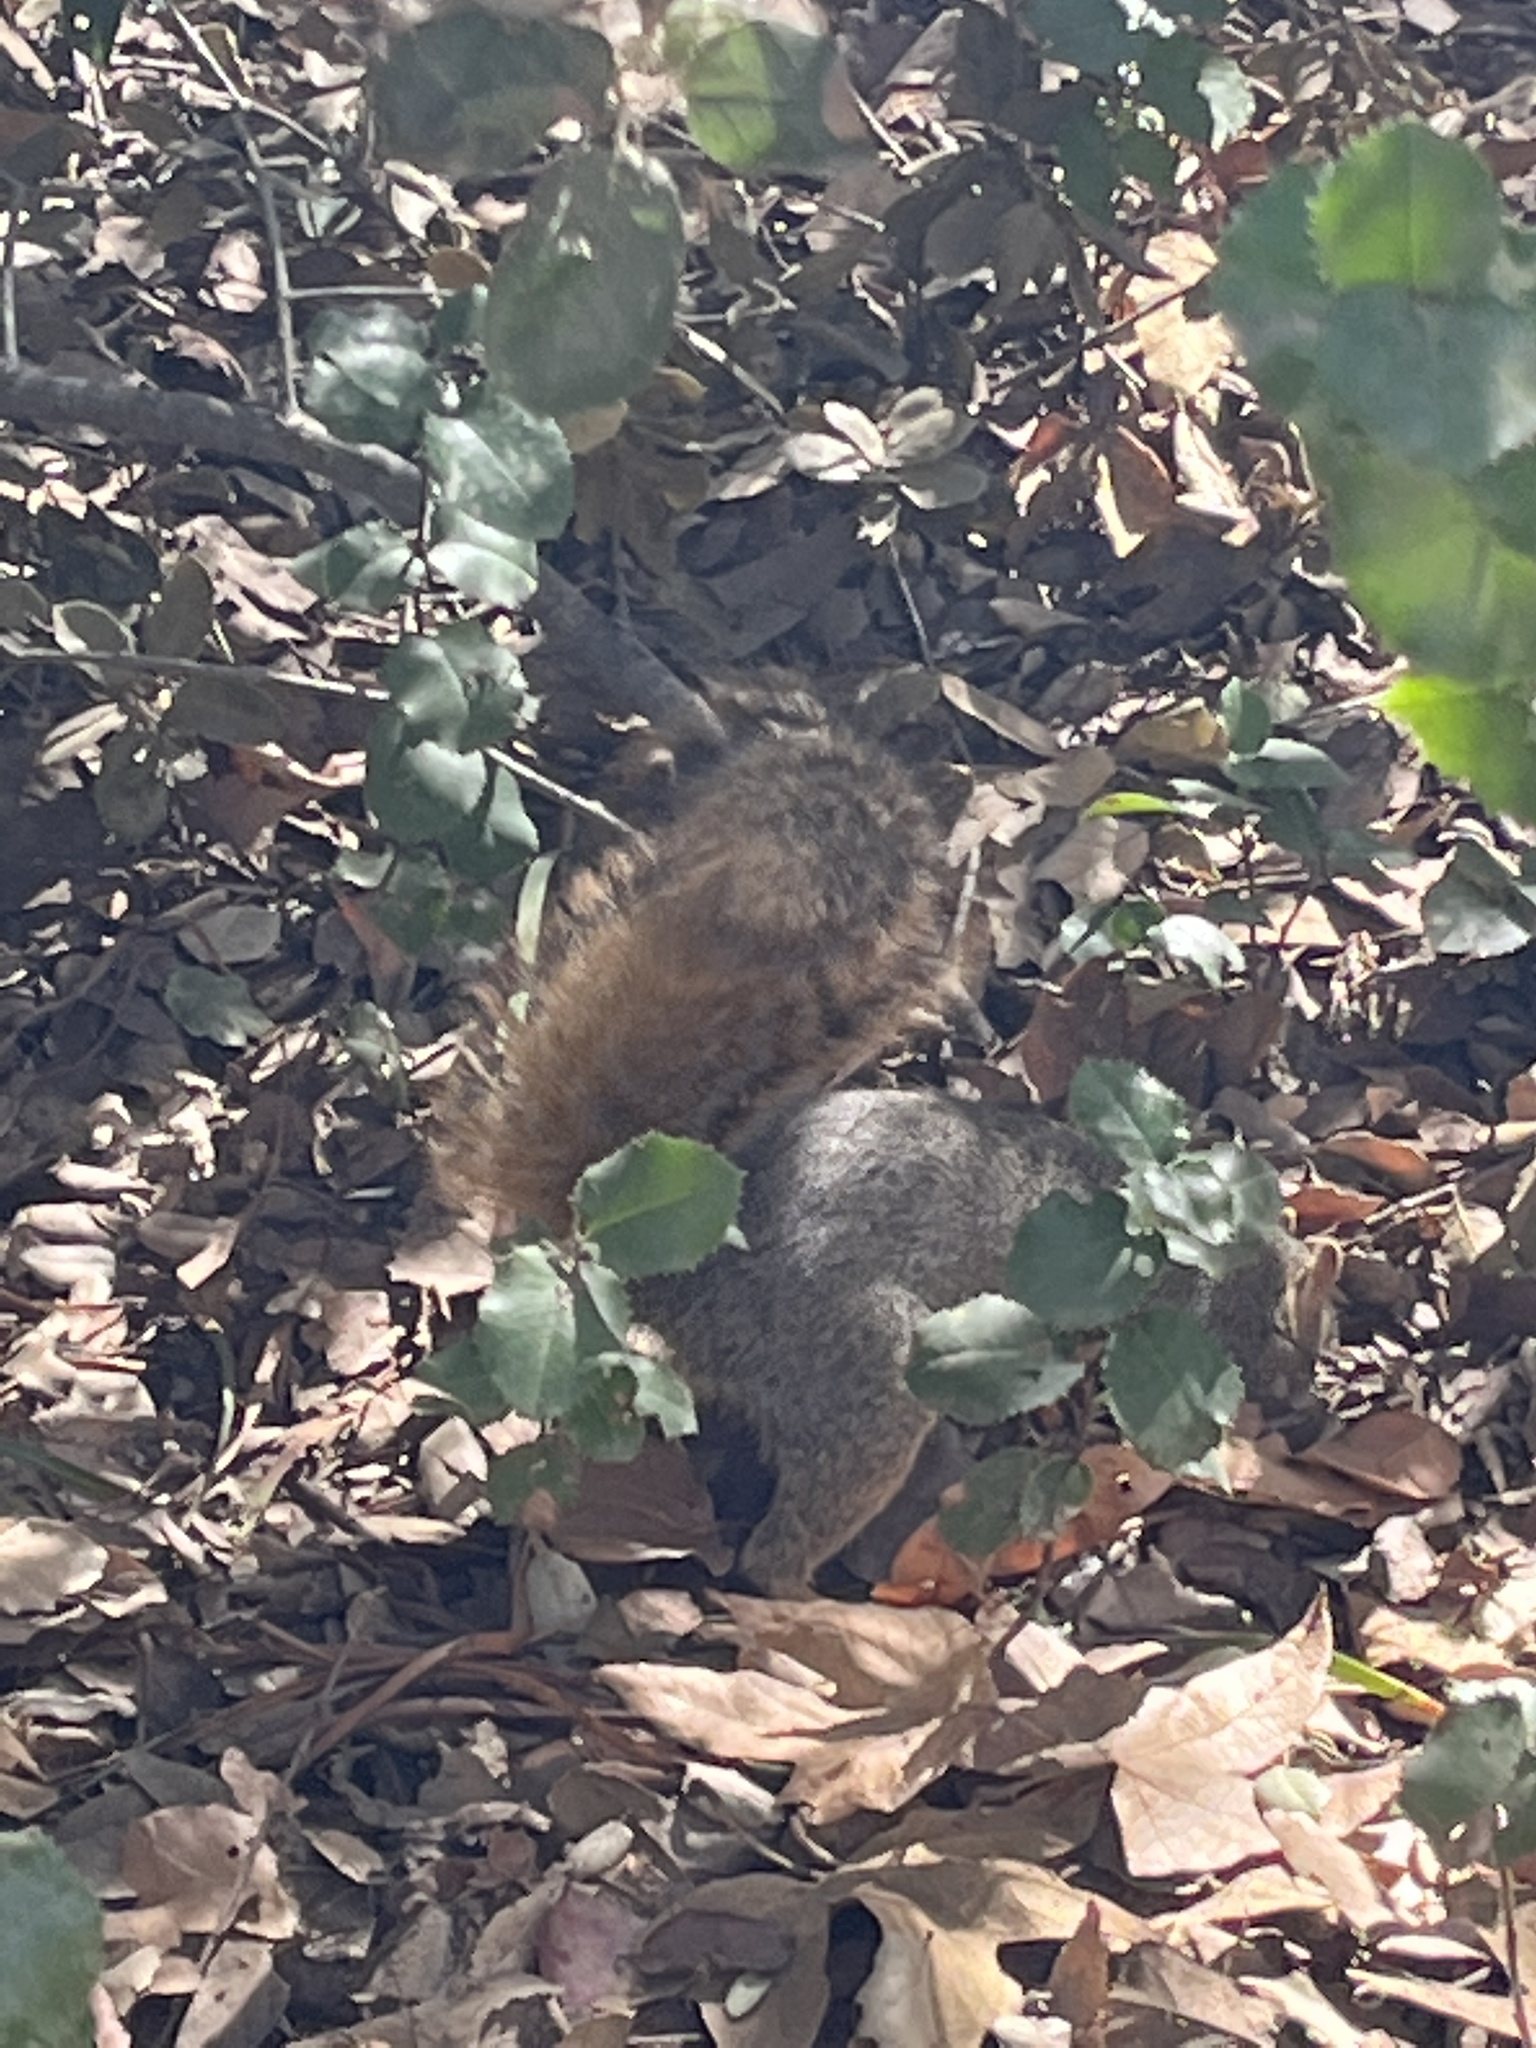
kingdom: Animalia
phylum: Chordata
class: Mammalia
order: Rodentia
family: Sciuridae
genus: Sciurus
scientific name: Sciurus niger
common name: Fox squirrel
